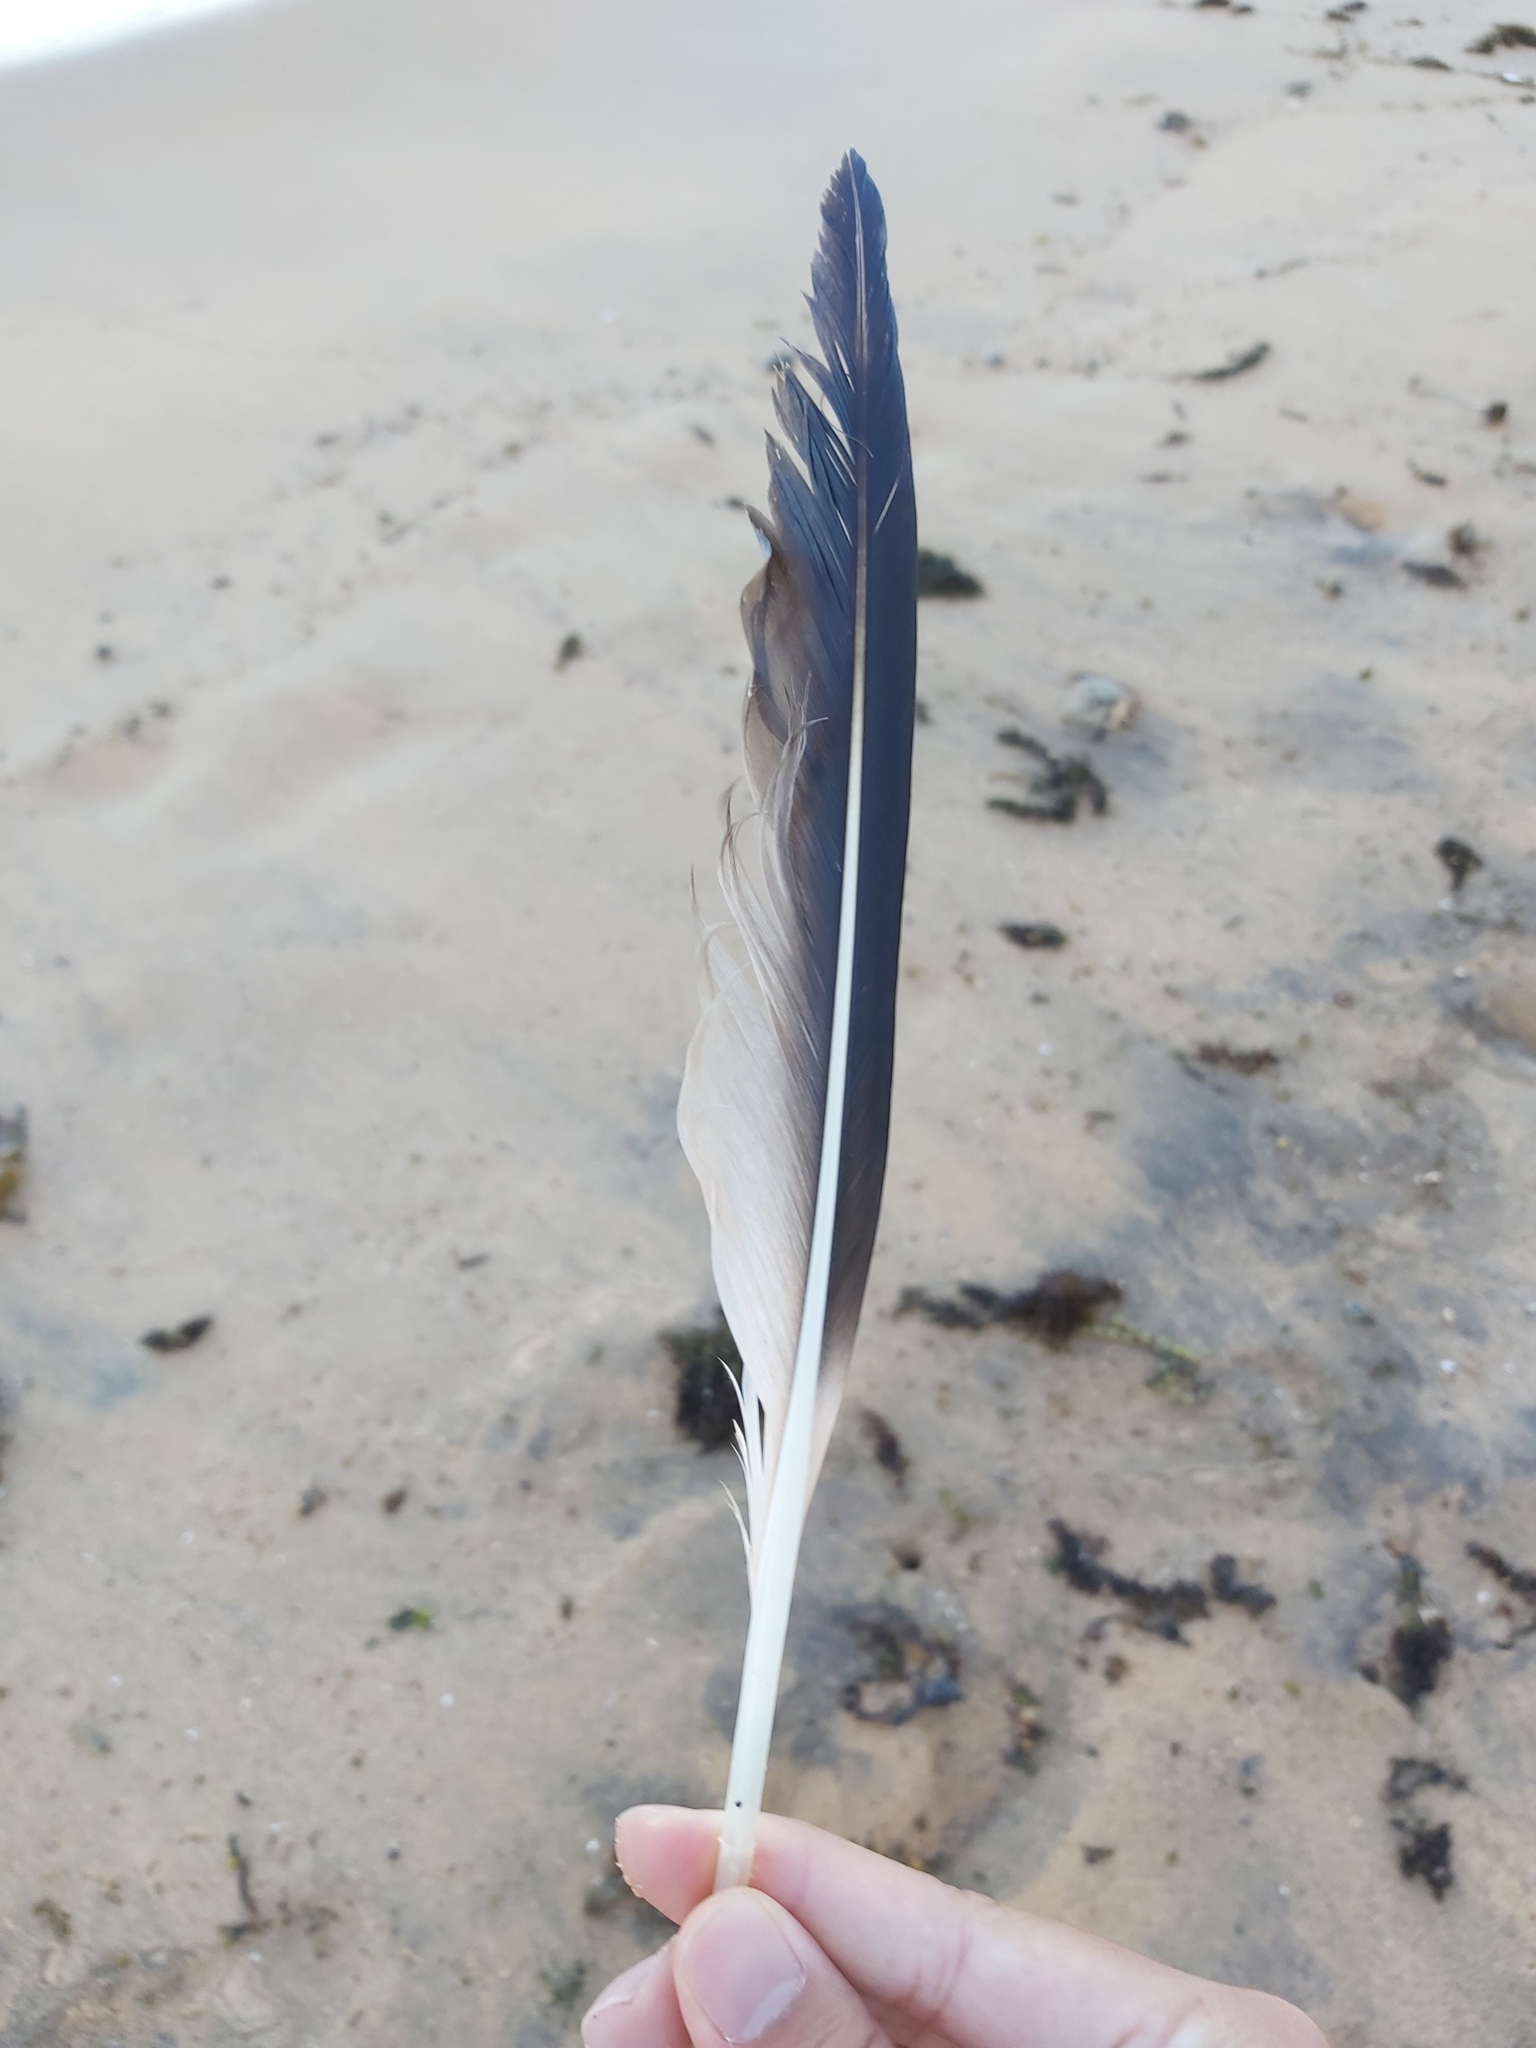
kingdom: Animalia
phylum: Chordata
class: Aves
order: Suliformes
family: Sulidae
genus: Morus
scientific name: Morus serrator
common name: Australasian gannet
